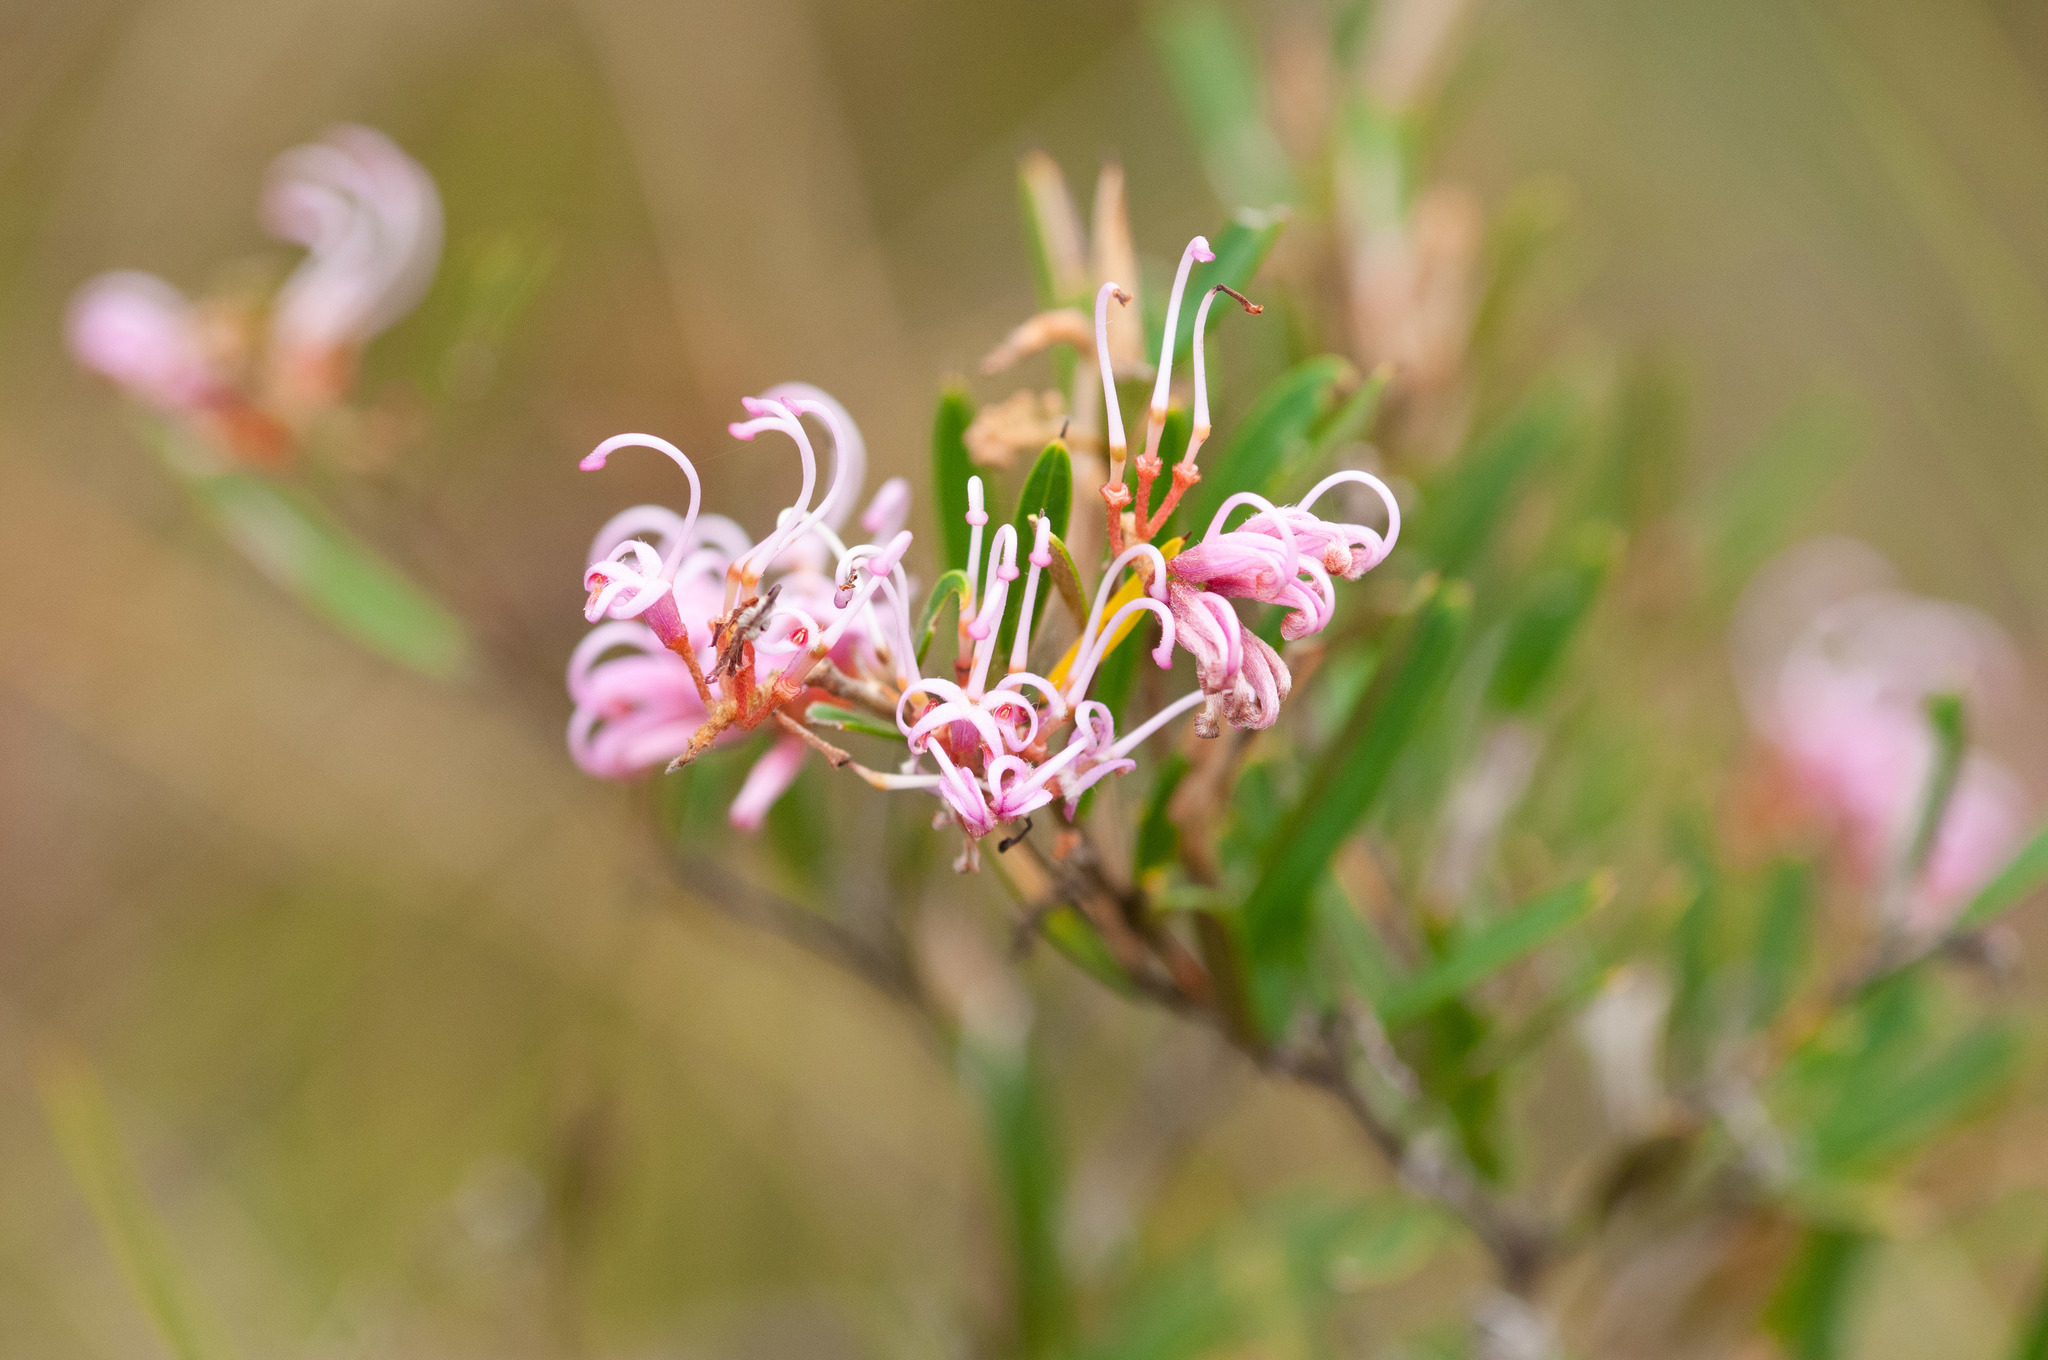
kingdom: Plantae
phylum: Tracheophyta
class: Magnoliopsida
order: Proteales
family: Proteaceae
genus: Grevillea
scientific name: Grevillea sericea
